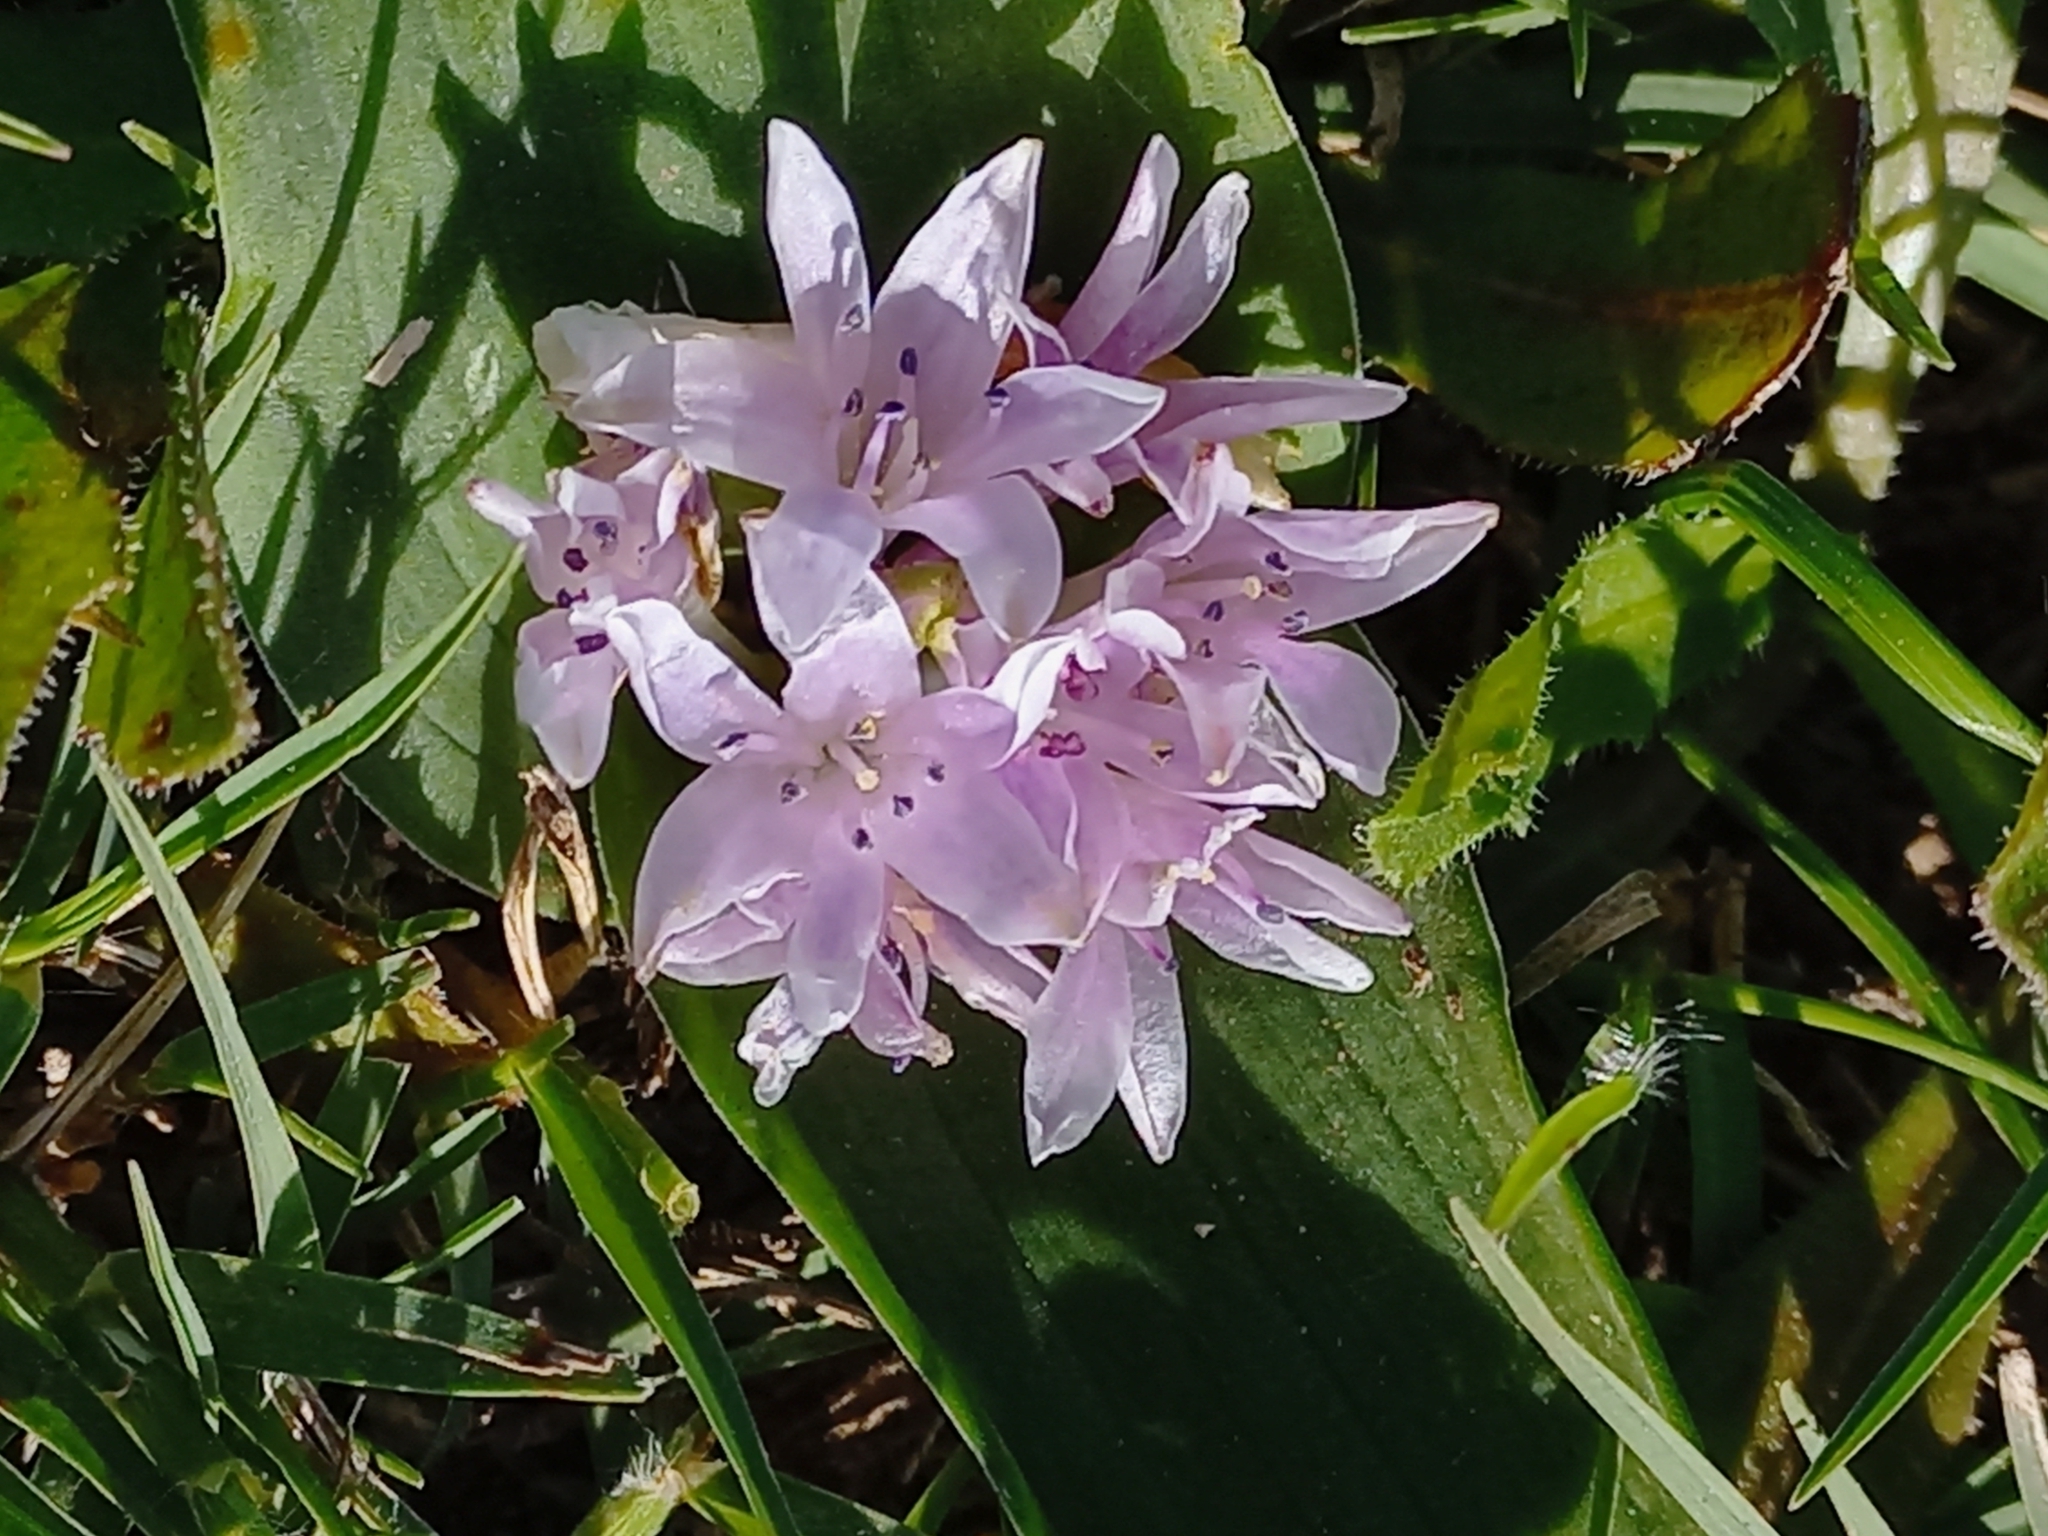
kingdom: Plantae
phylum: Tracheophyta
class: Liliopsida
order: Asparagales
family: Asparagaceae
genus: Lachenalia
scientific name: Lachenalia ensifolia
